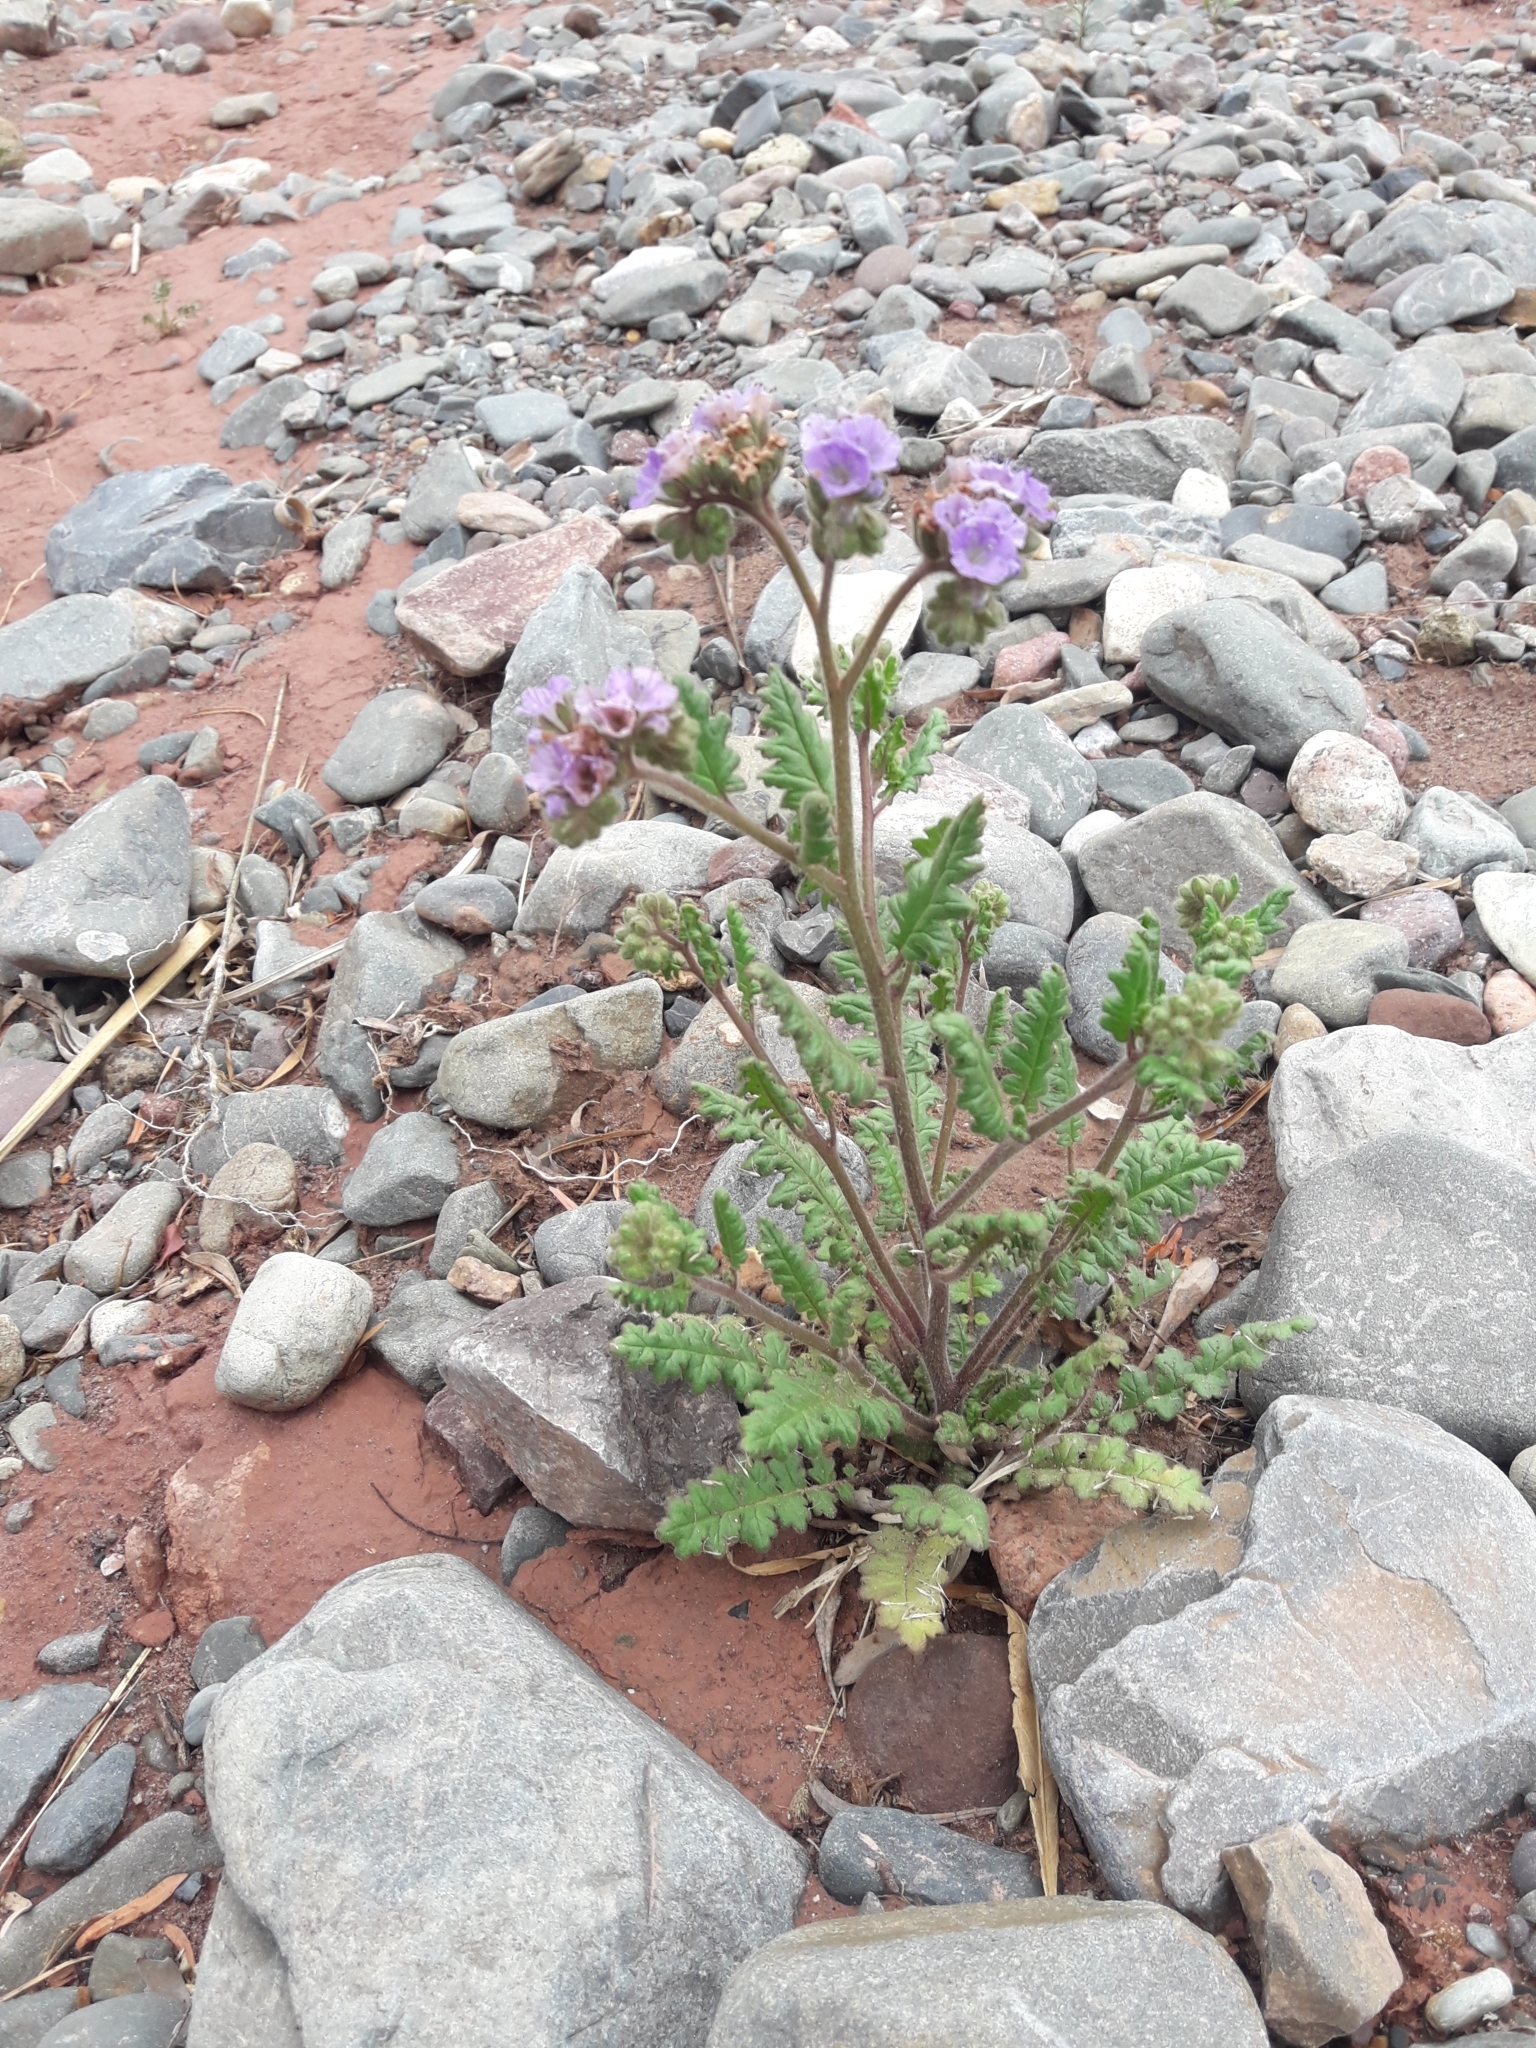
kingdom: Plantae
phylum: Tracheophyta
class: Magnoliopsida
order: Boraginales
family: Hydrophyllaceae
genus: Phacelia
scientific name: Phacelia pinnatifida
